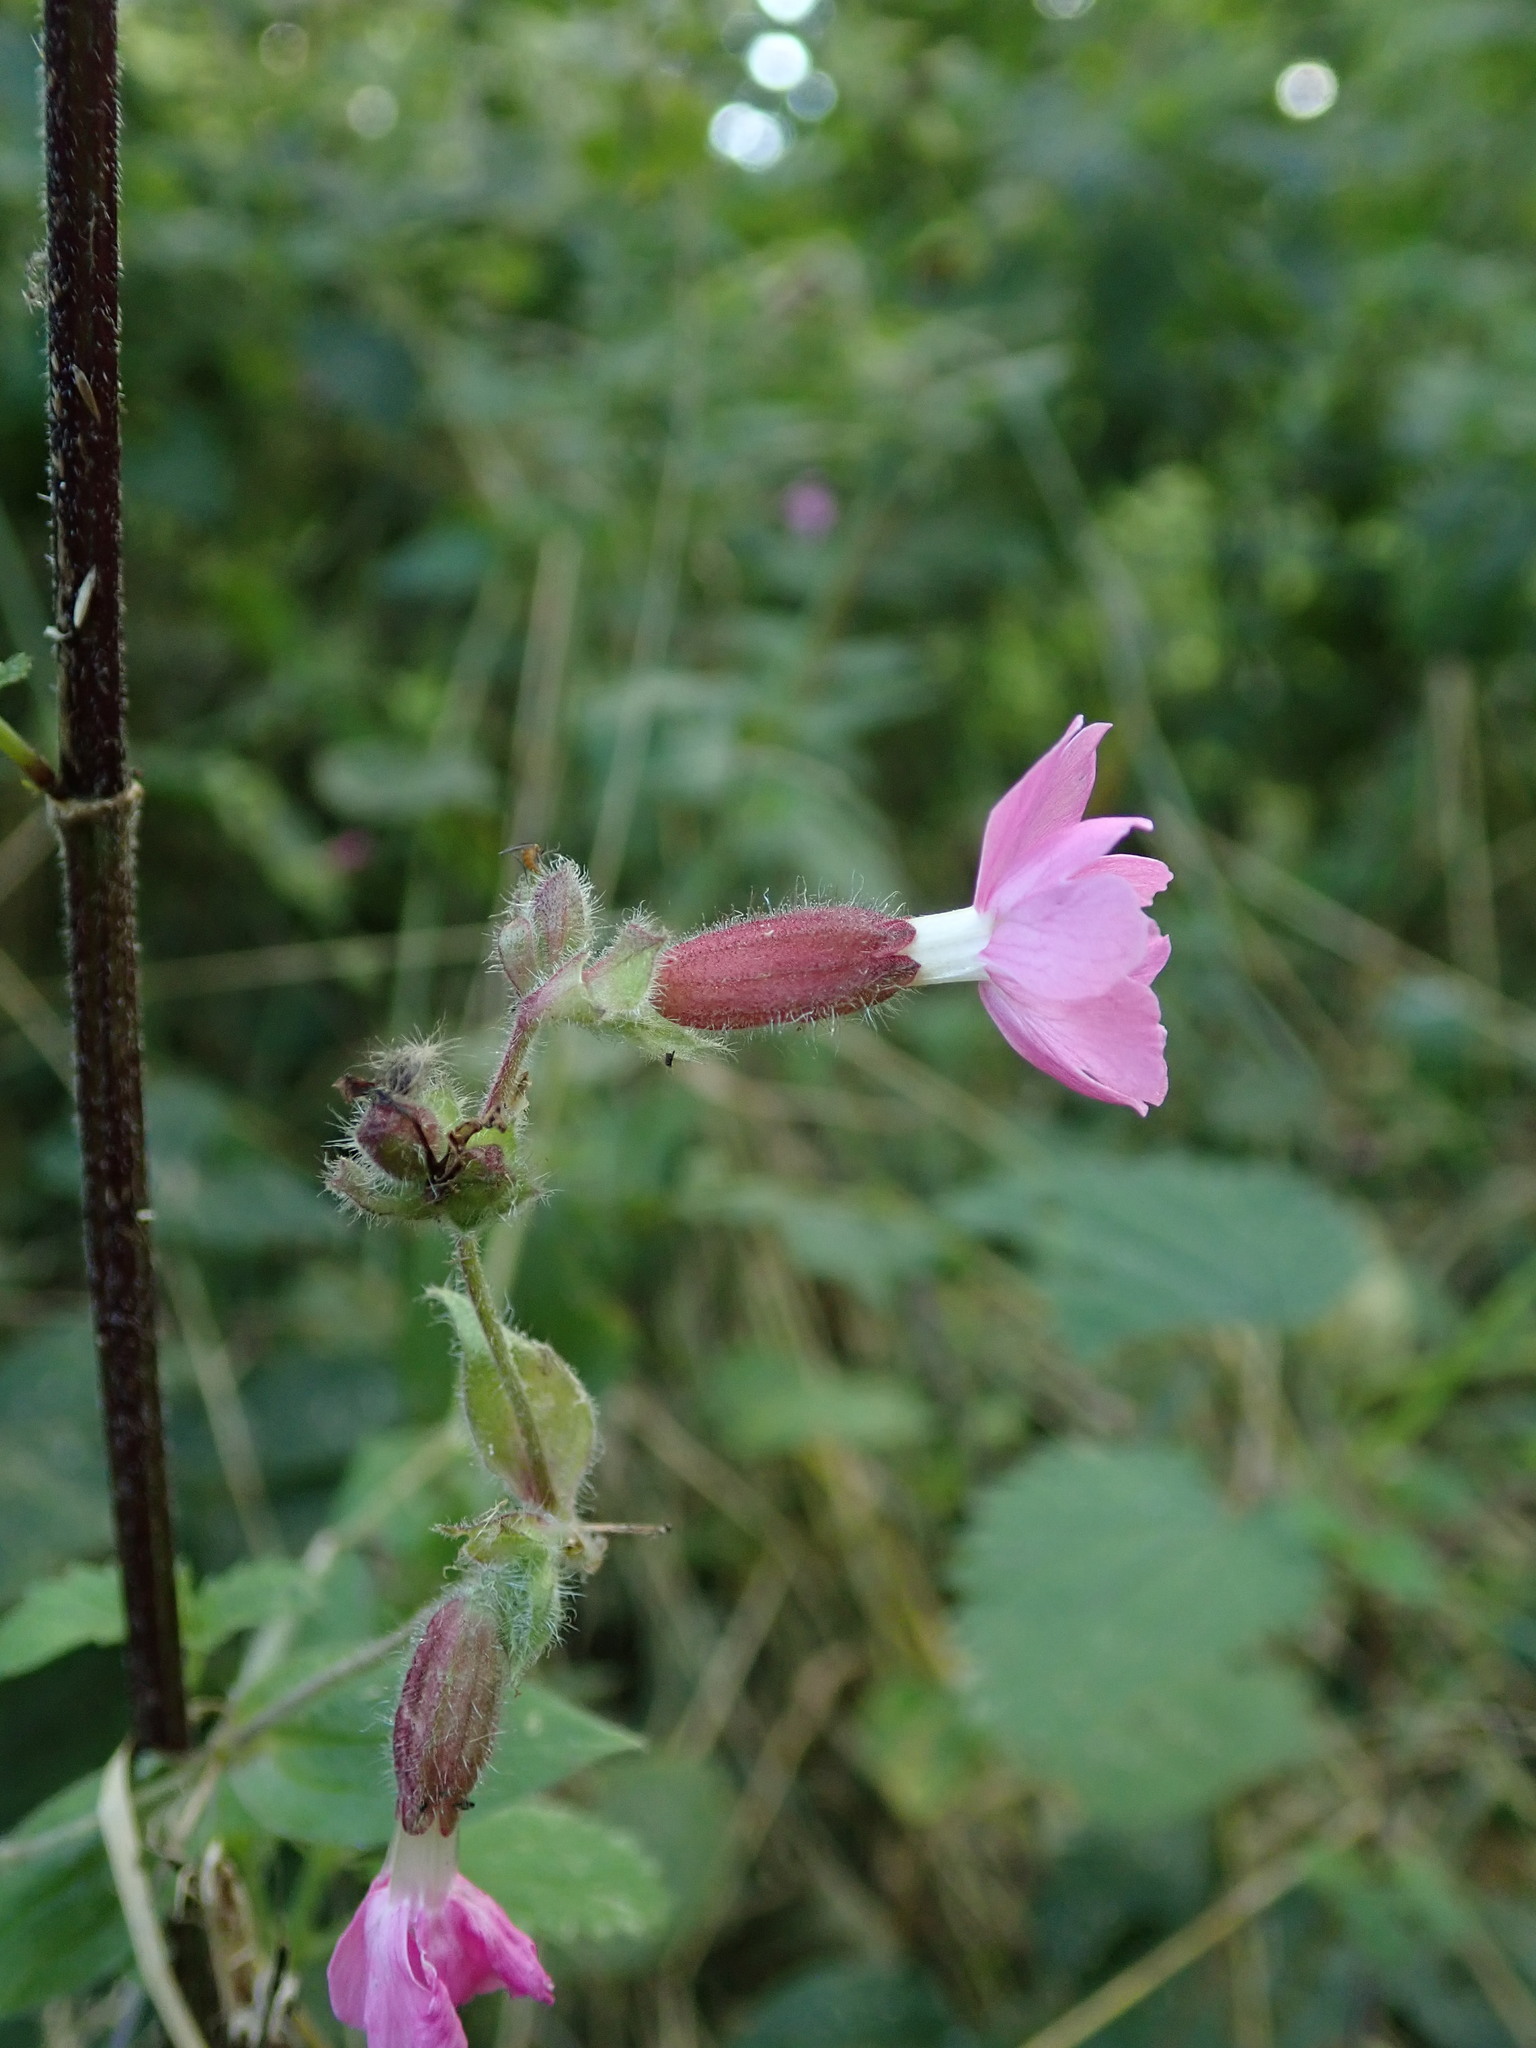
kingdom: Plantae
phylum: Tracheophyta
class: Magnoliopsida
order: Caryophyllales
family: Caryophyllaceae
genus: Silene
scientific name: Silene dioica
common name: Red campion
